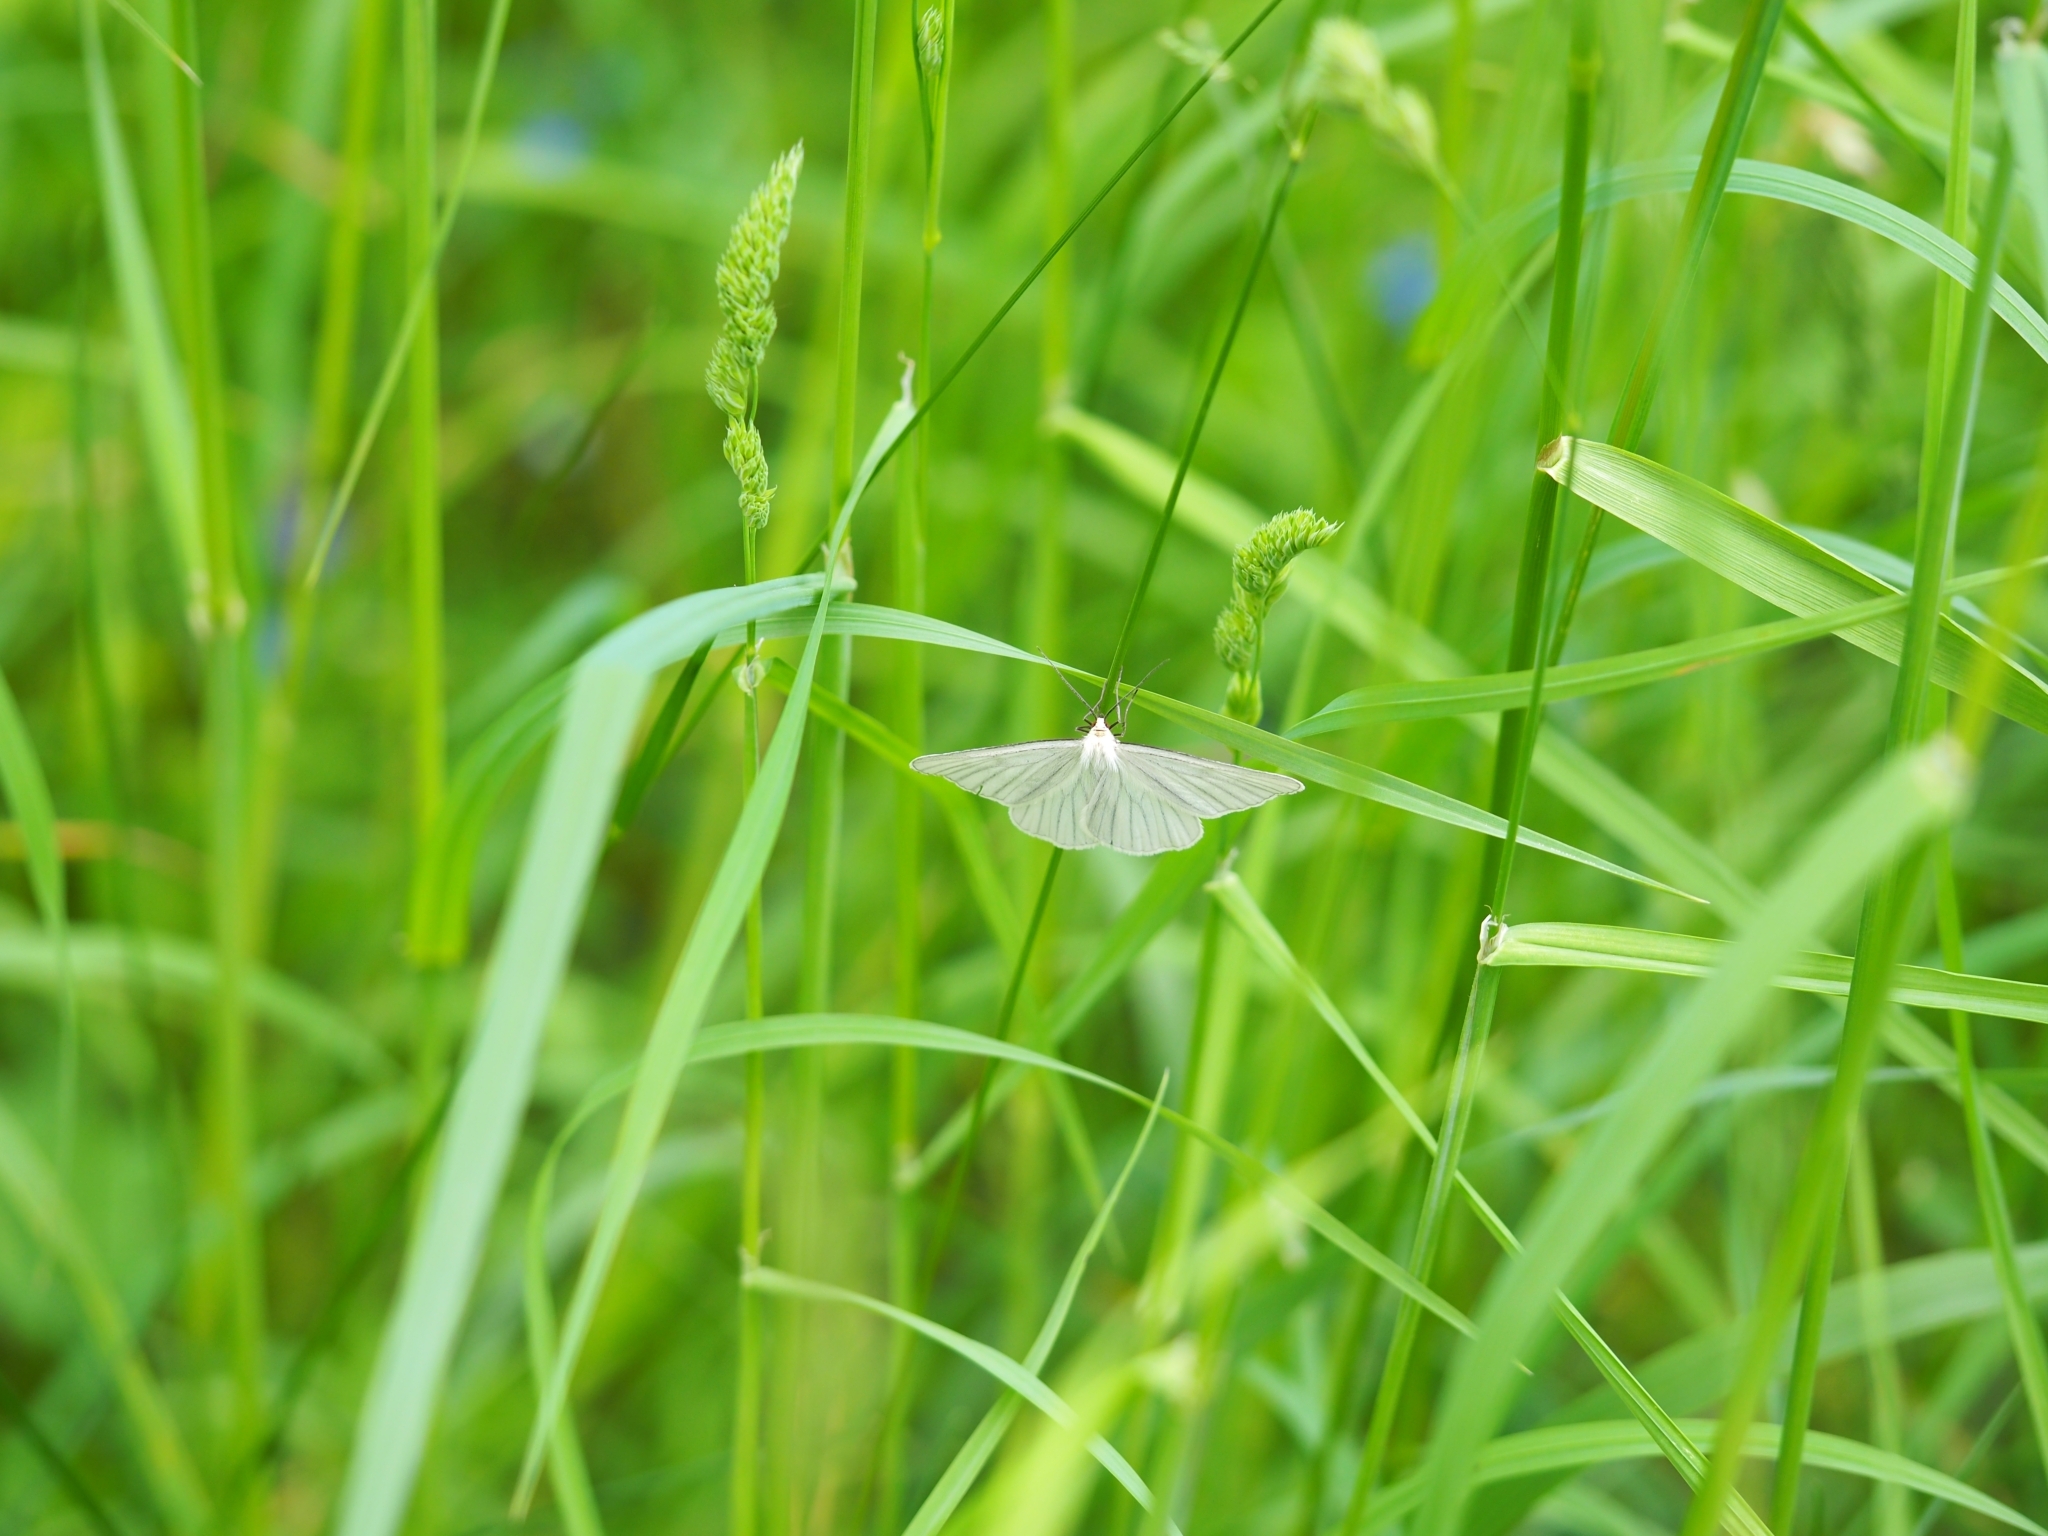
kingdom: Animalia
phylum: Arthropoda
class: Insecta
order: Lepidoptera
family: Geometridae
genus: Siona
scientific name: Siona lineata
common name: Black-veined moth
